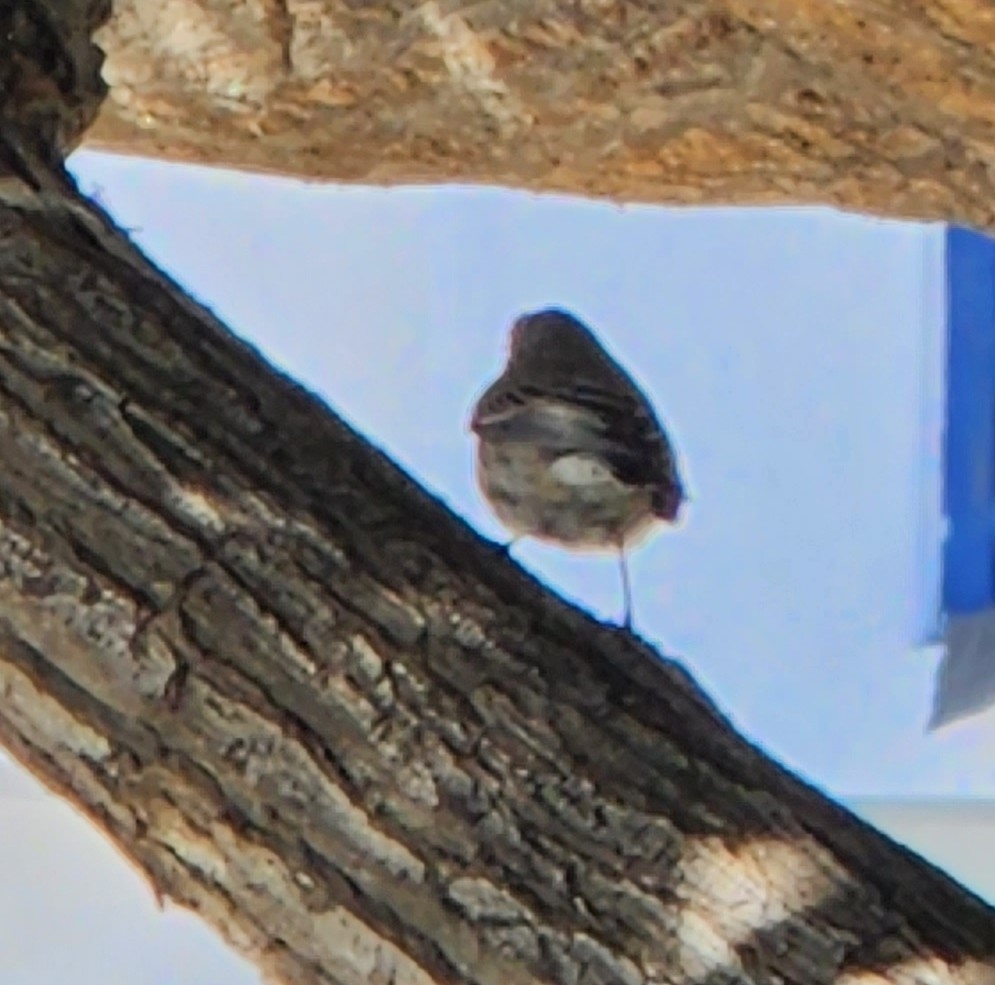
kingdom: Animalia
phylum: Chordata
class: Aves
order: Passeriformes
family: Parulidae
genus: Setophaga
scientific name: Setophaga coronata
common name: Myrtle warbler
